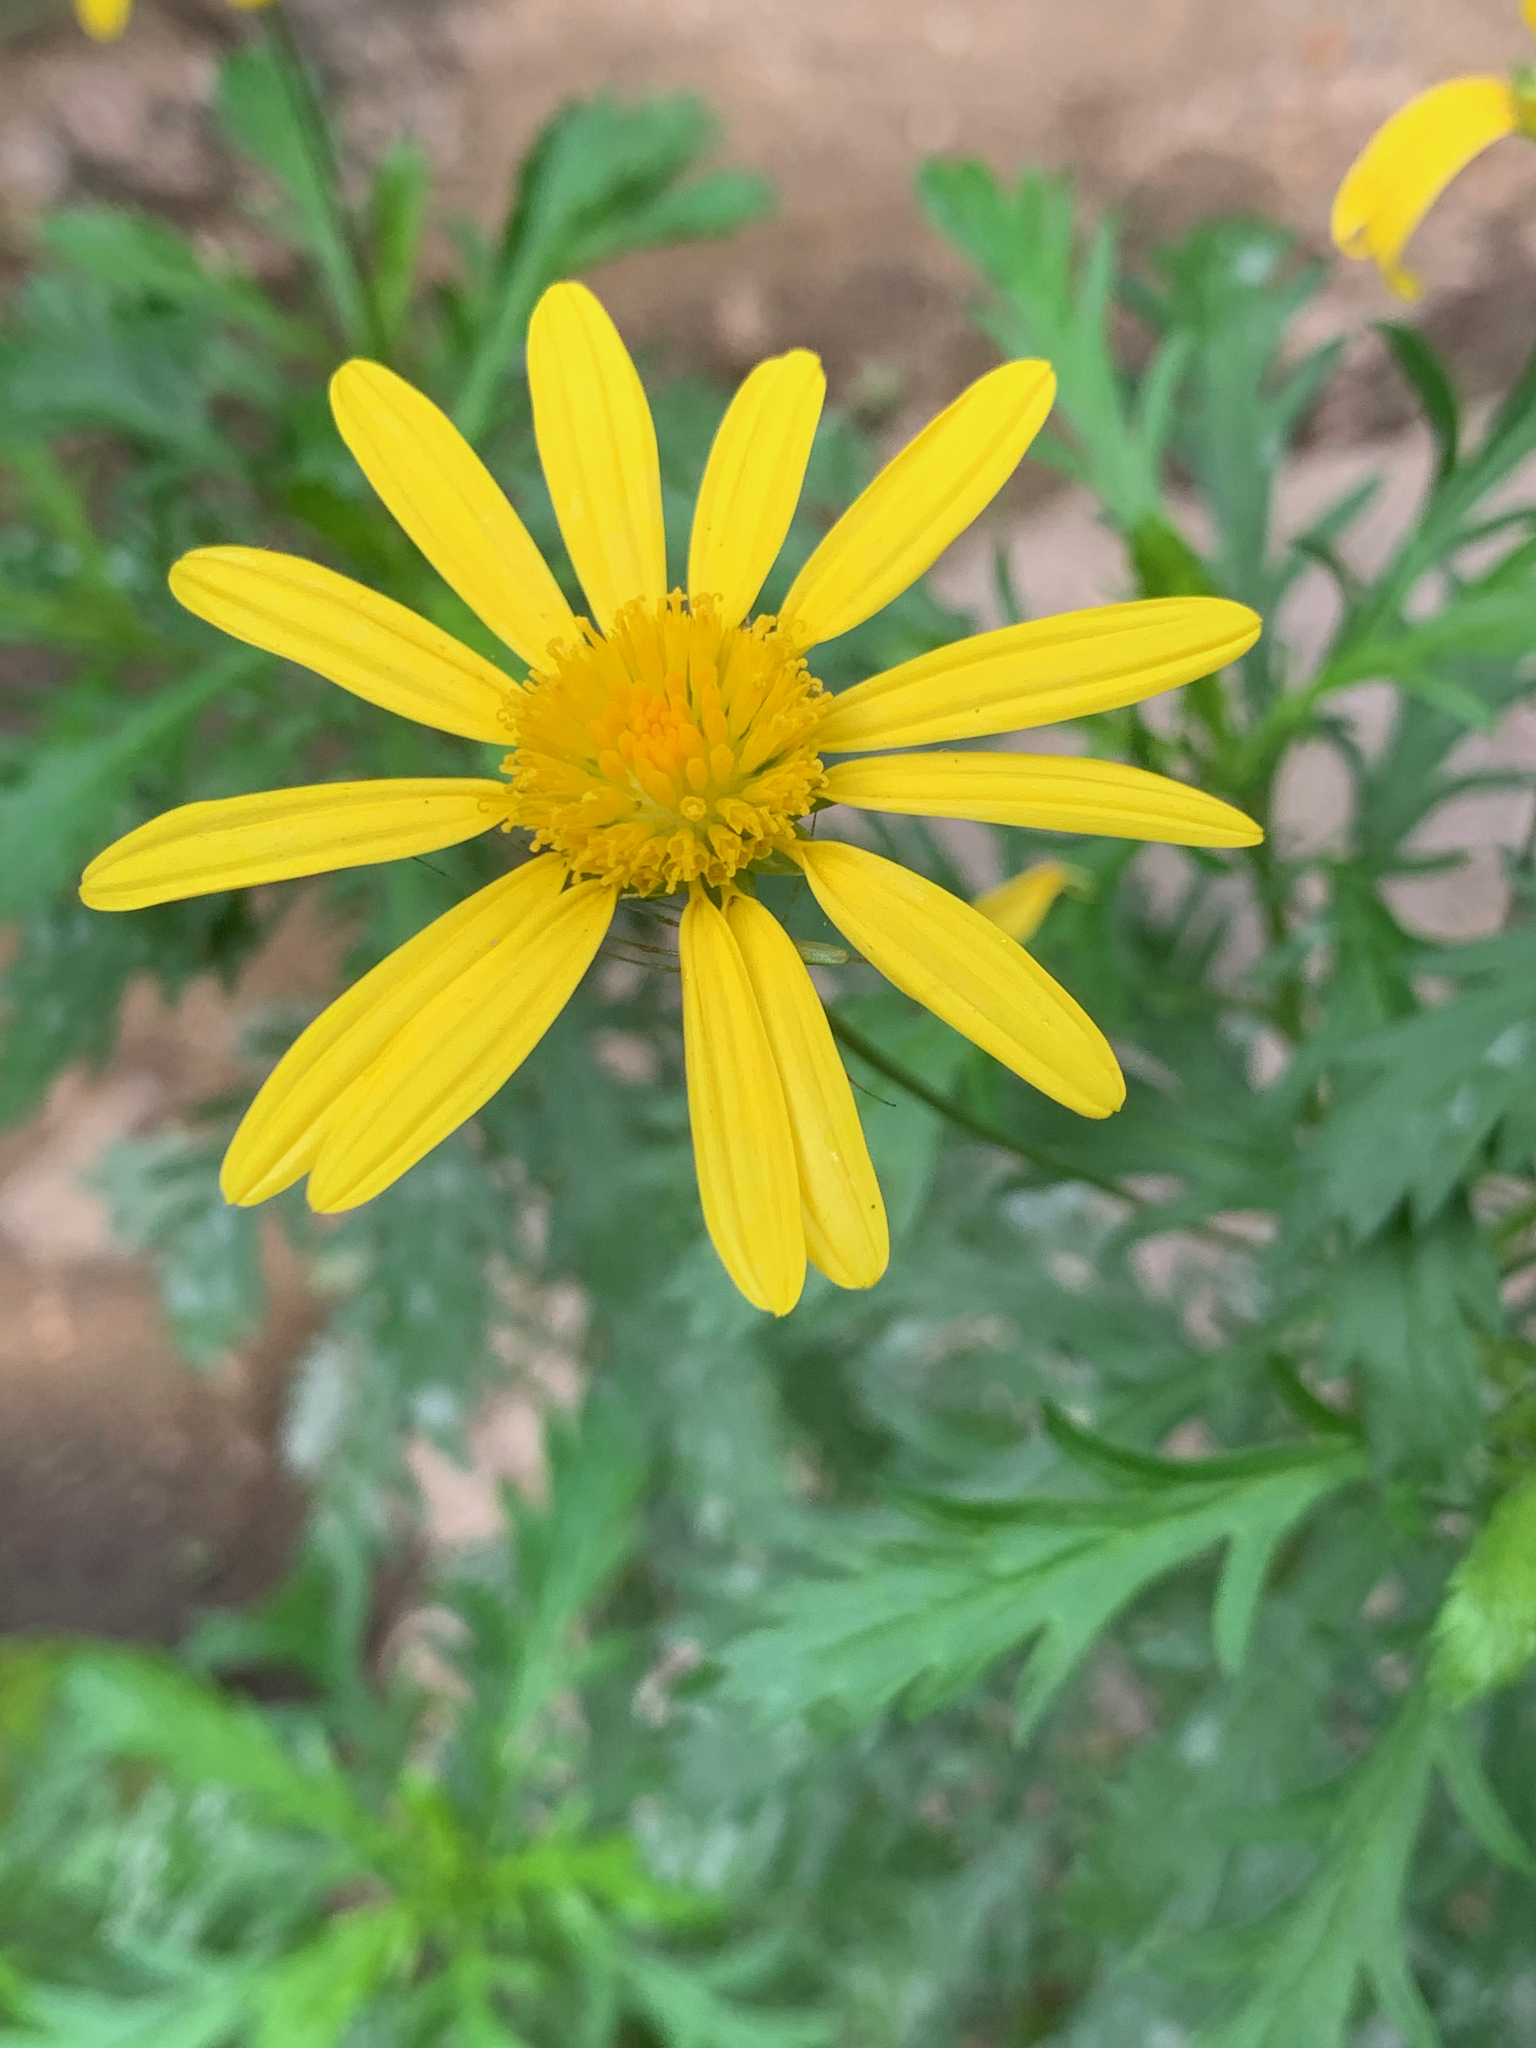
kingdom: Plantae
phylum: Tracheophyta
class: Magnoliopsida
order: Asterales
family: Asteraceae
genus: Euryops
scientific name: Euryops chrysanthemoides
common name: Bull's eye
